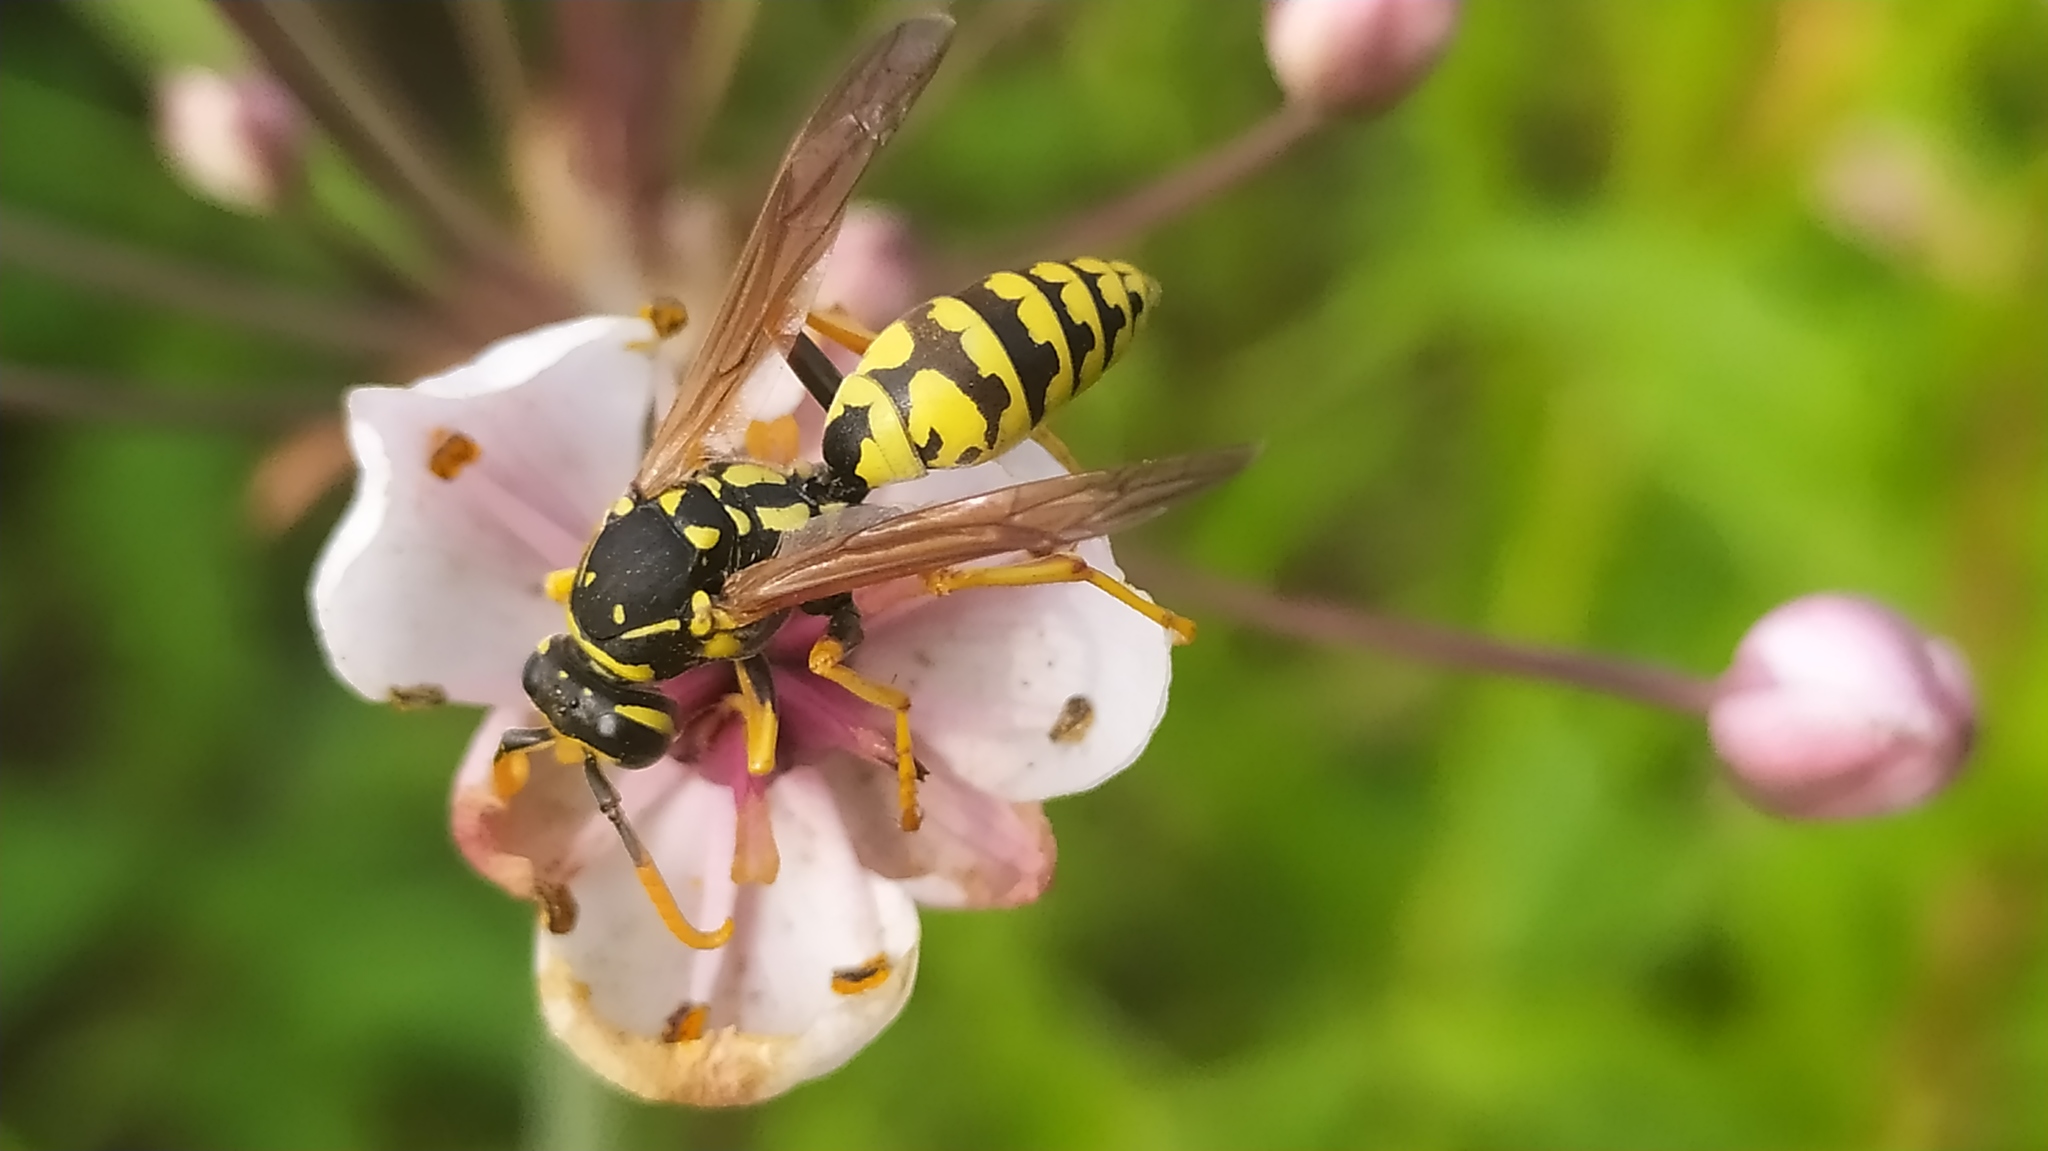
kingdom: Animalia
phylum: Arthropoda
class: Insecta
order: Hymenoptera
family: Eumenidae
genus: Polistes
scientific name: Polistes dominula
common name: Paper wasp
